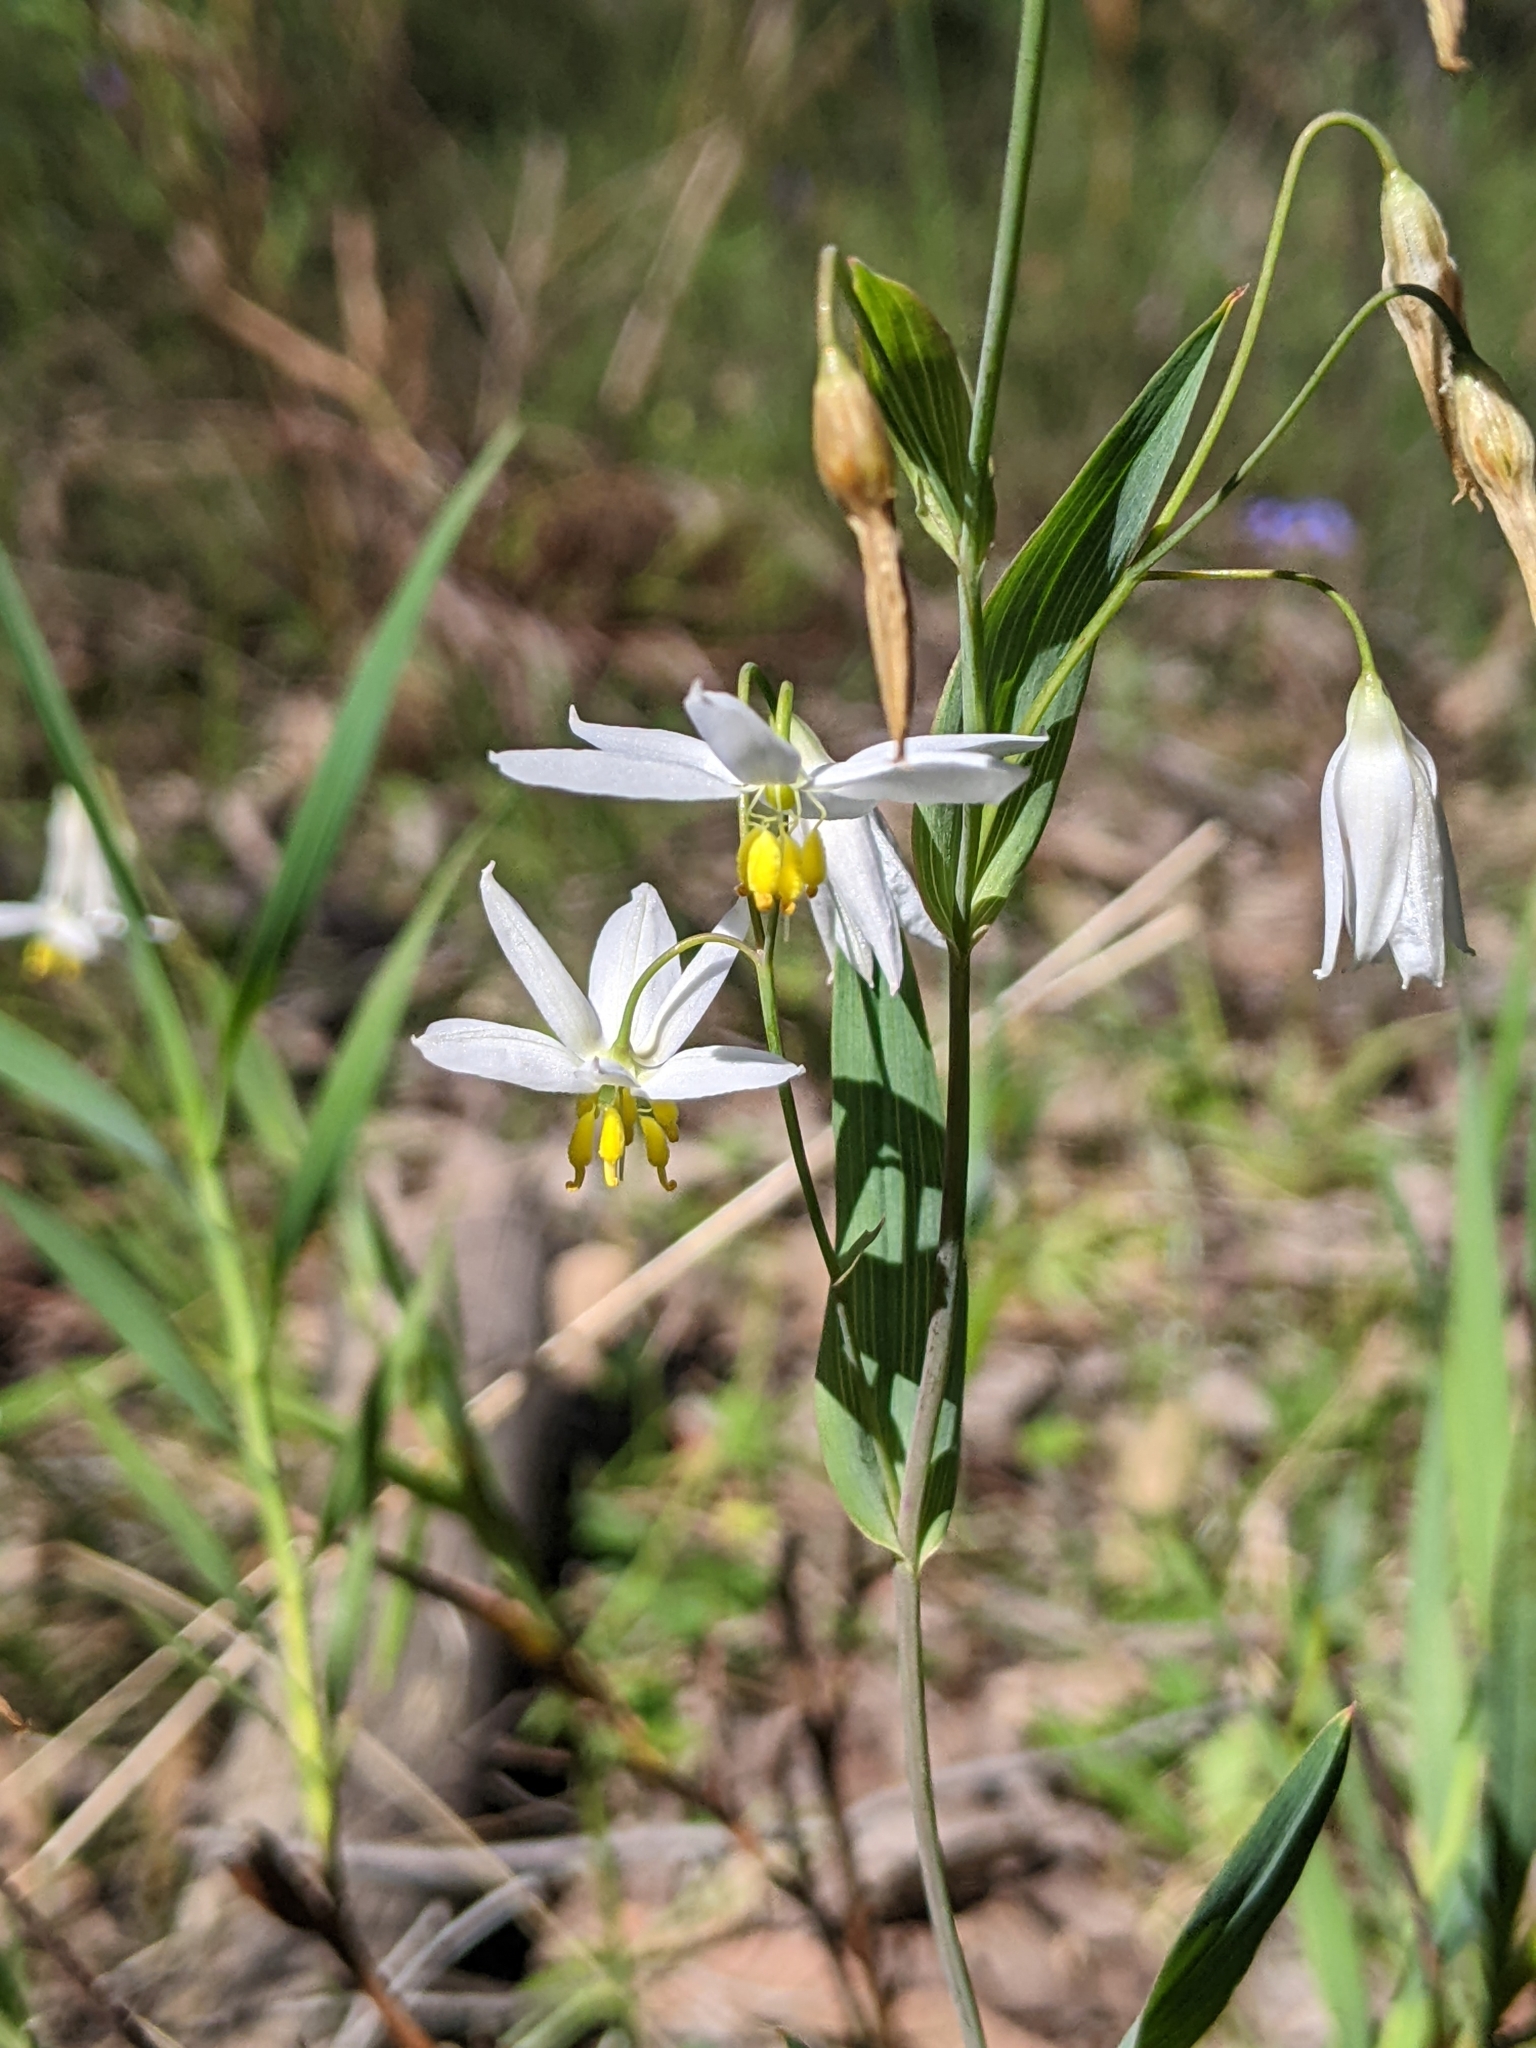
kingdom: Plantae
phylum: Tracheophyta
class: Liliopsida
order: Asparagales
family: Asphodelaceae
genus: Stypandra
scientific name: Stypandra glauca
